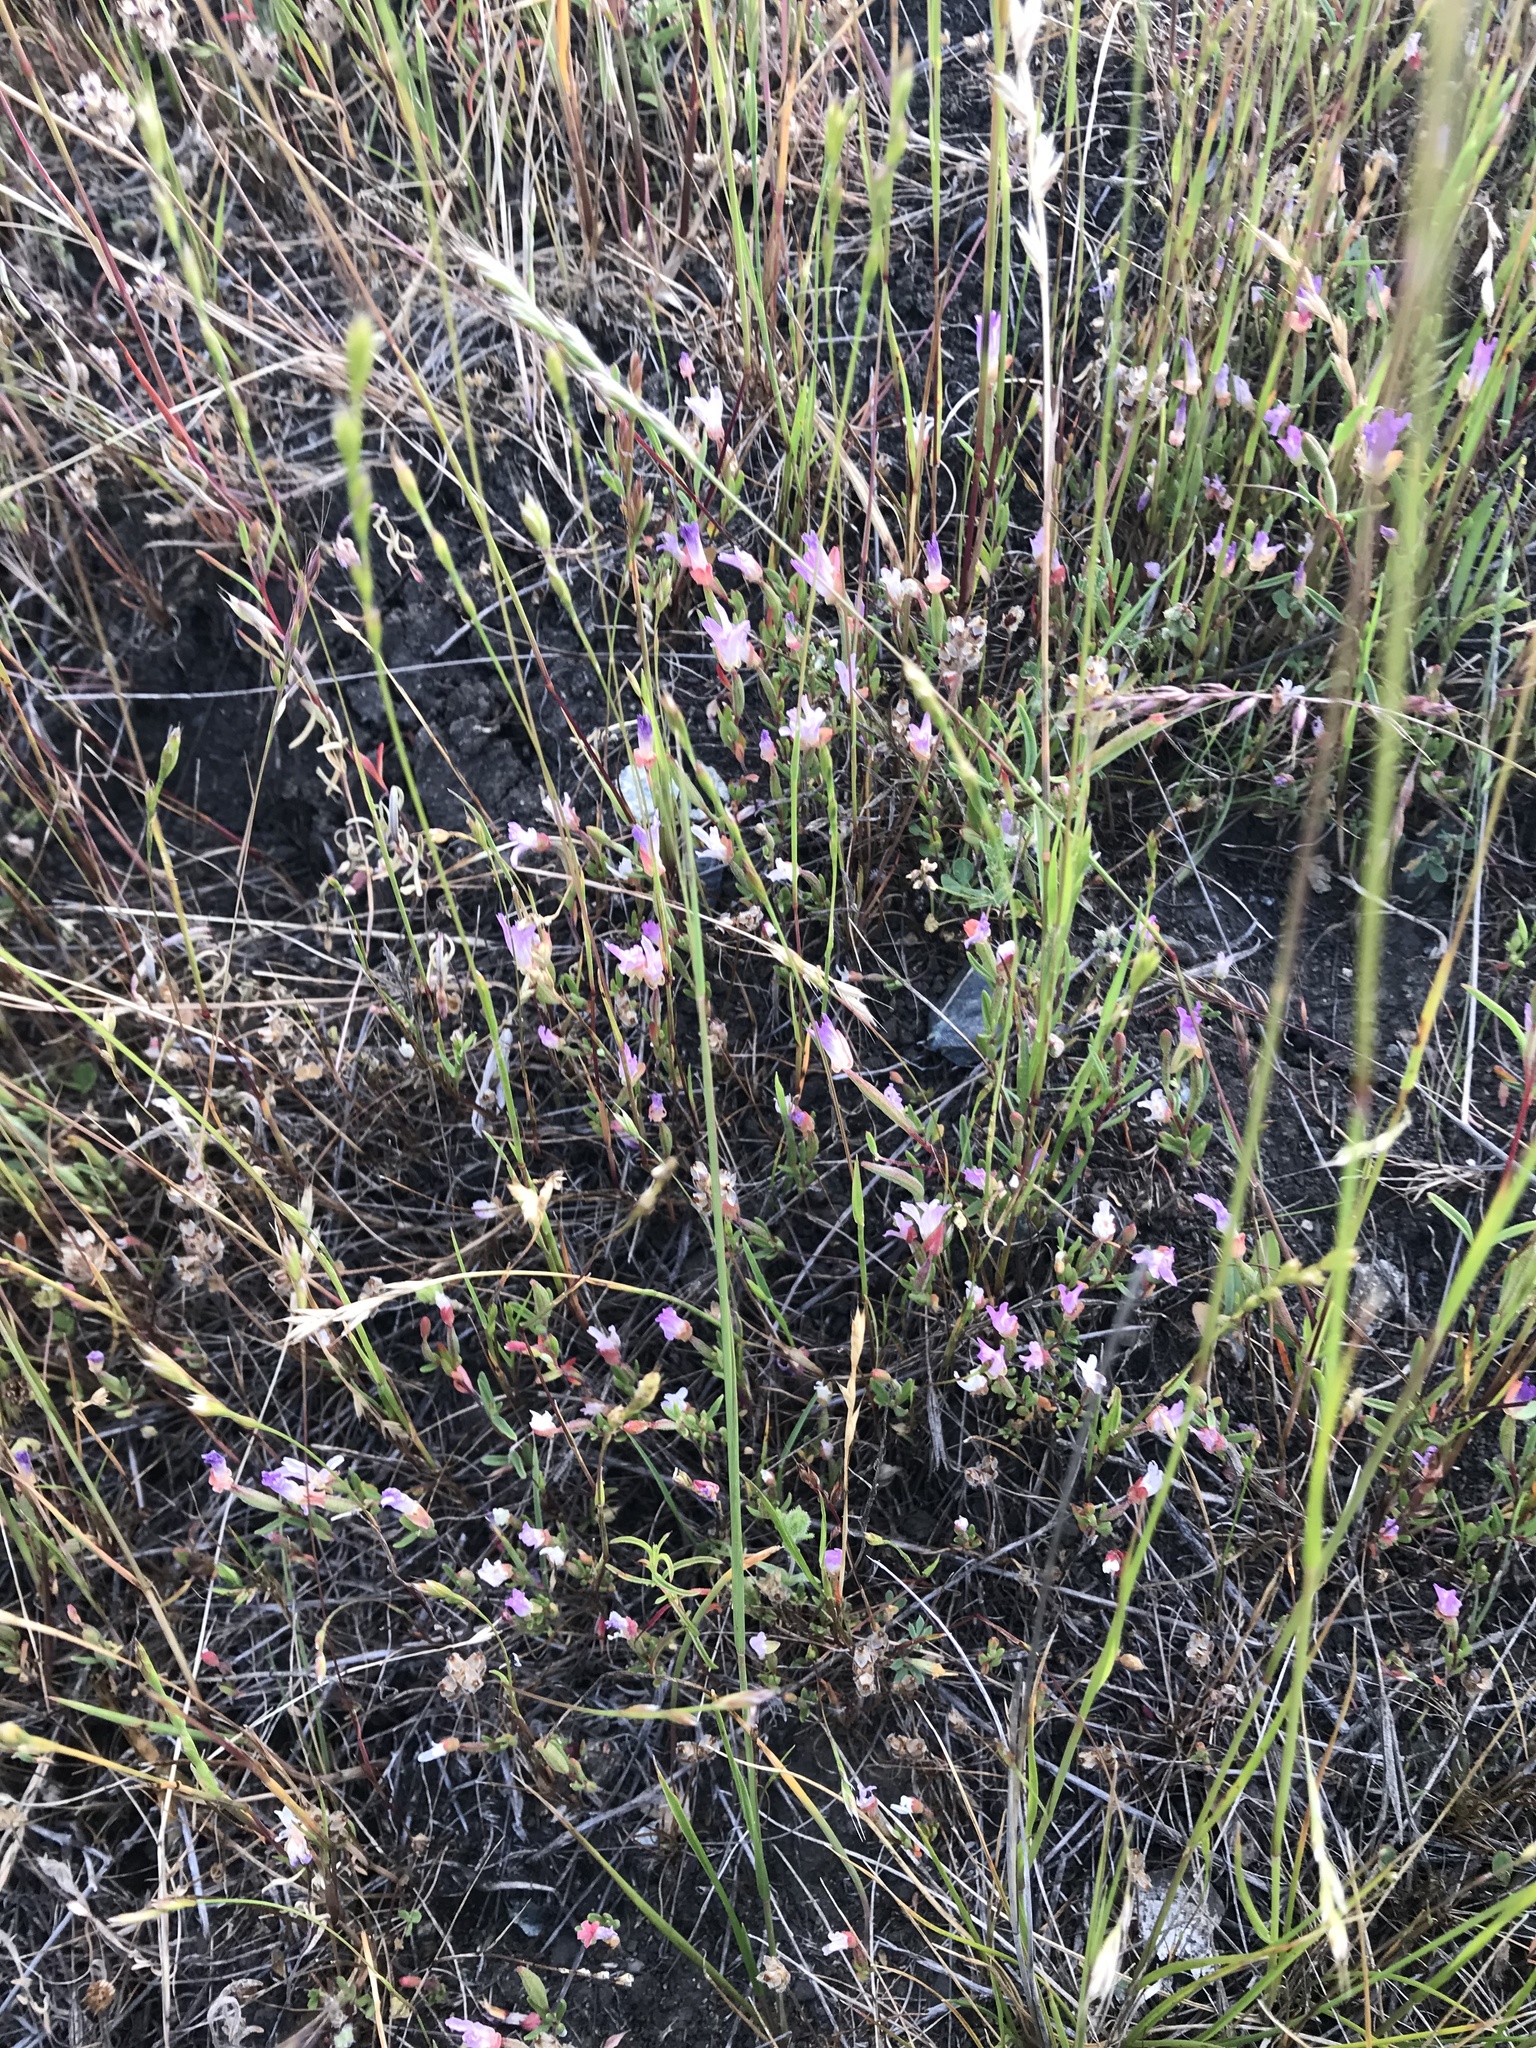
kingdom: Plantae
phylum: Tracheophyta
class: Magnoliopsida
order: Myrtales
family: Onagraceae
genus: Clarkia
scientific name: Clarkia franciscana
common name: Presidio clarkia
